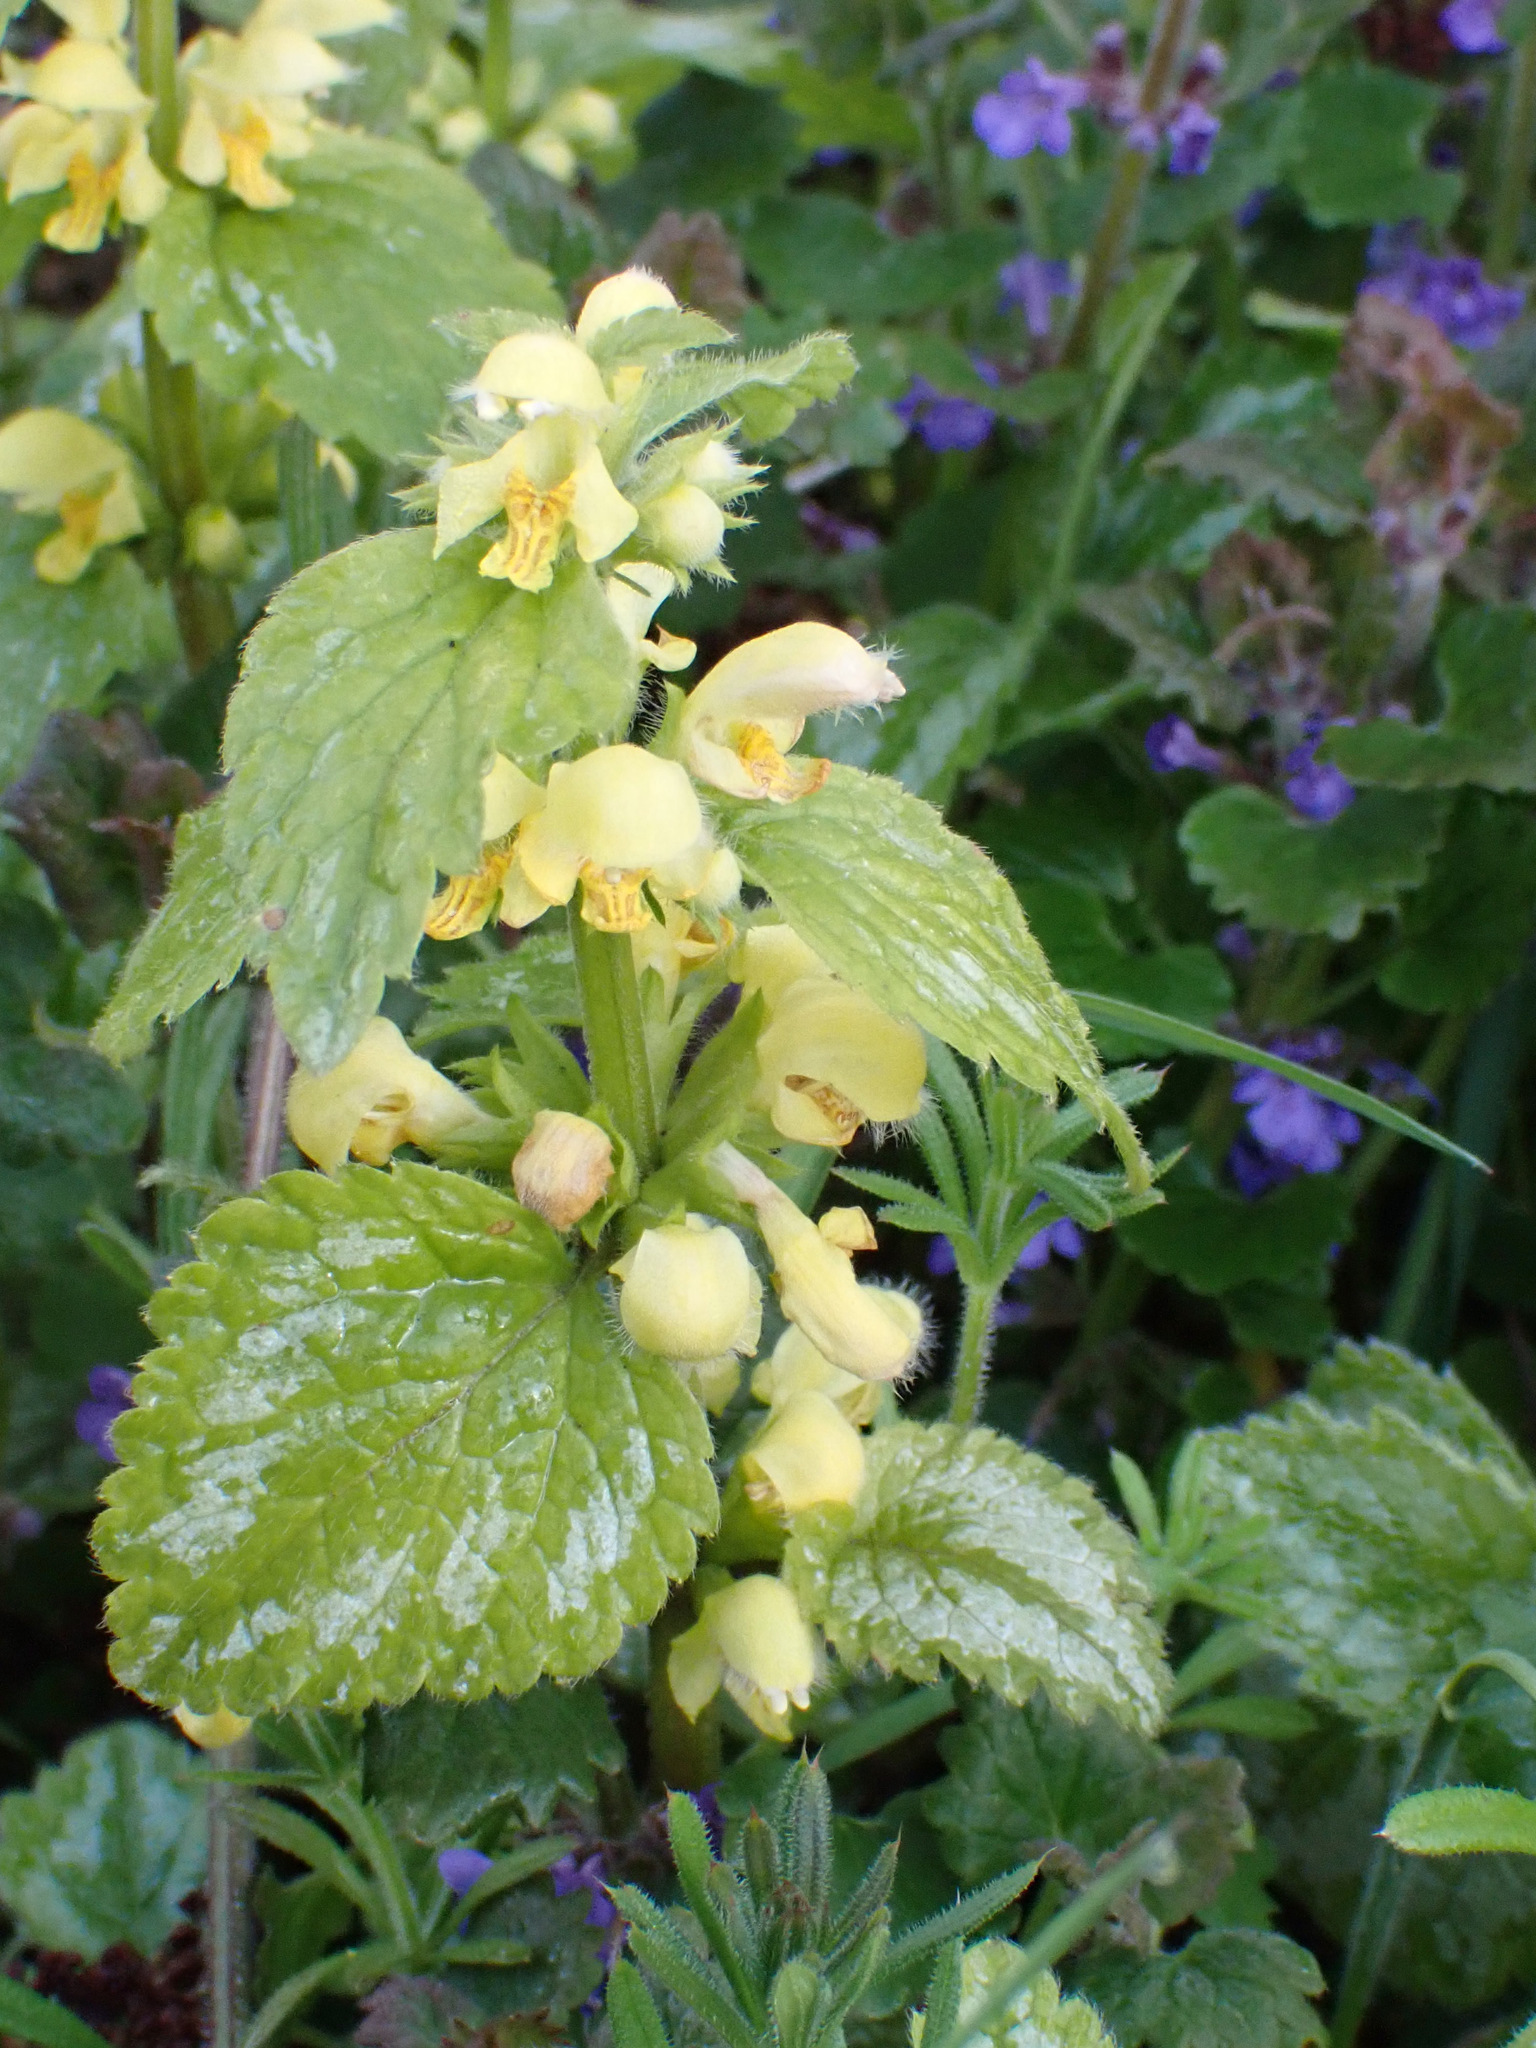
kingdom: Plantae
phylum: Tracheophyta
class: Magnoliopsida
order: Lamiales
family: Lamiaceae
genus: Lamium
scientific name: Lamium galeobdolon
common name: Yellow archangel
